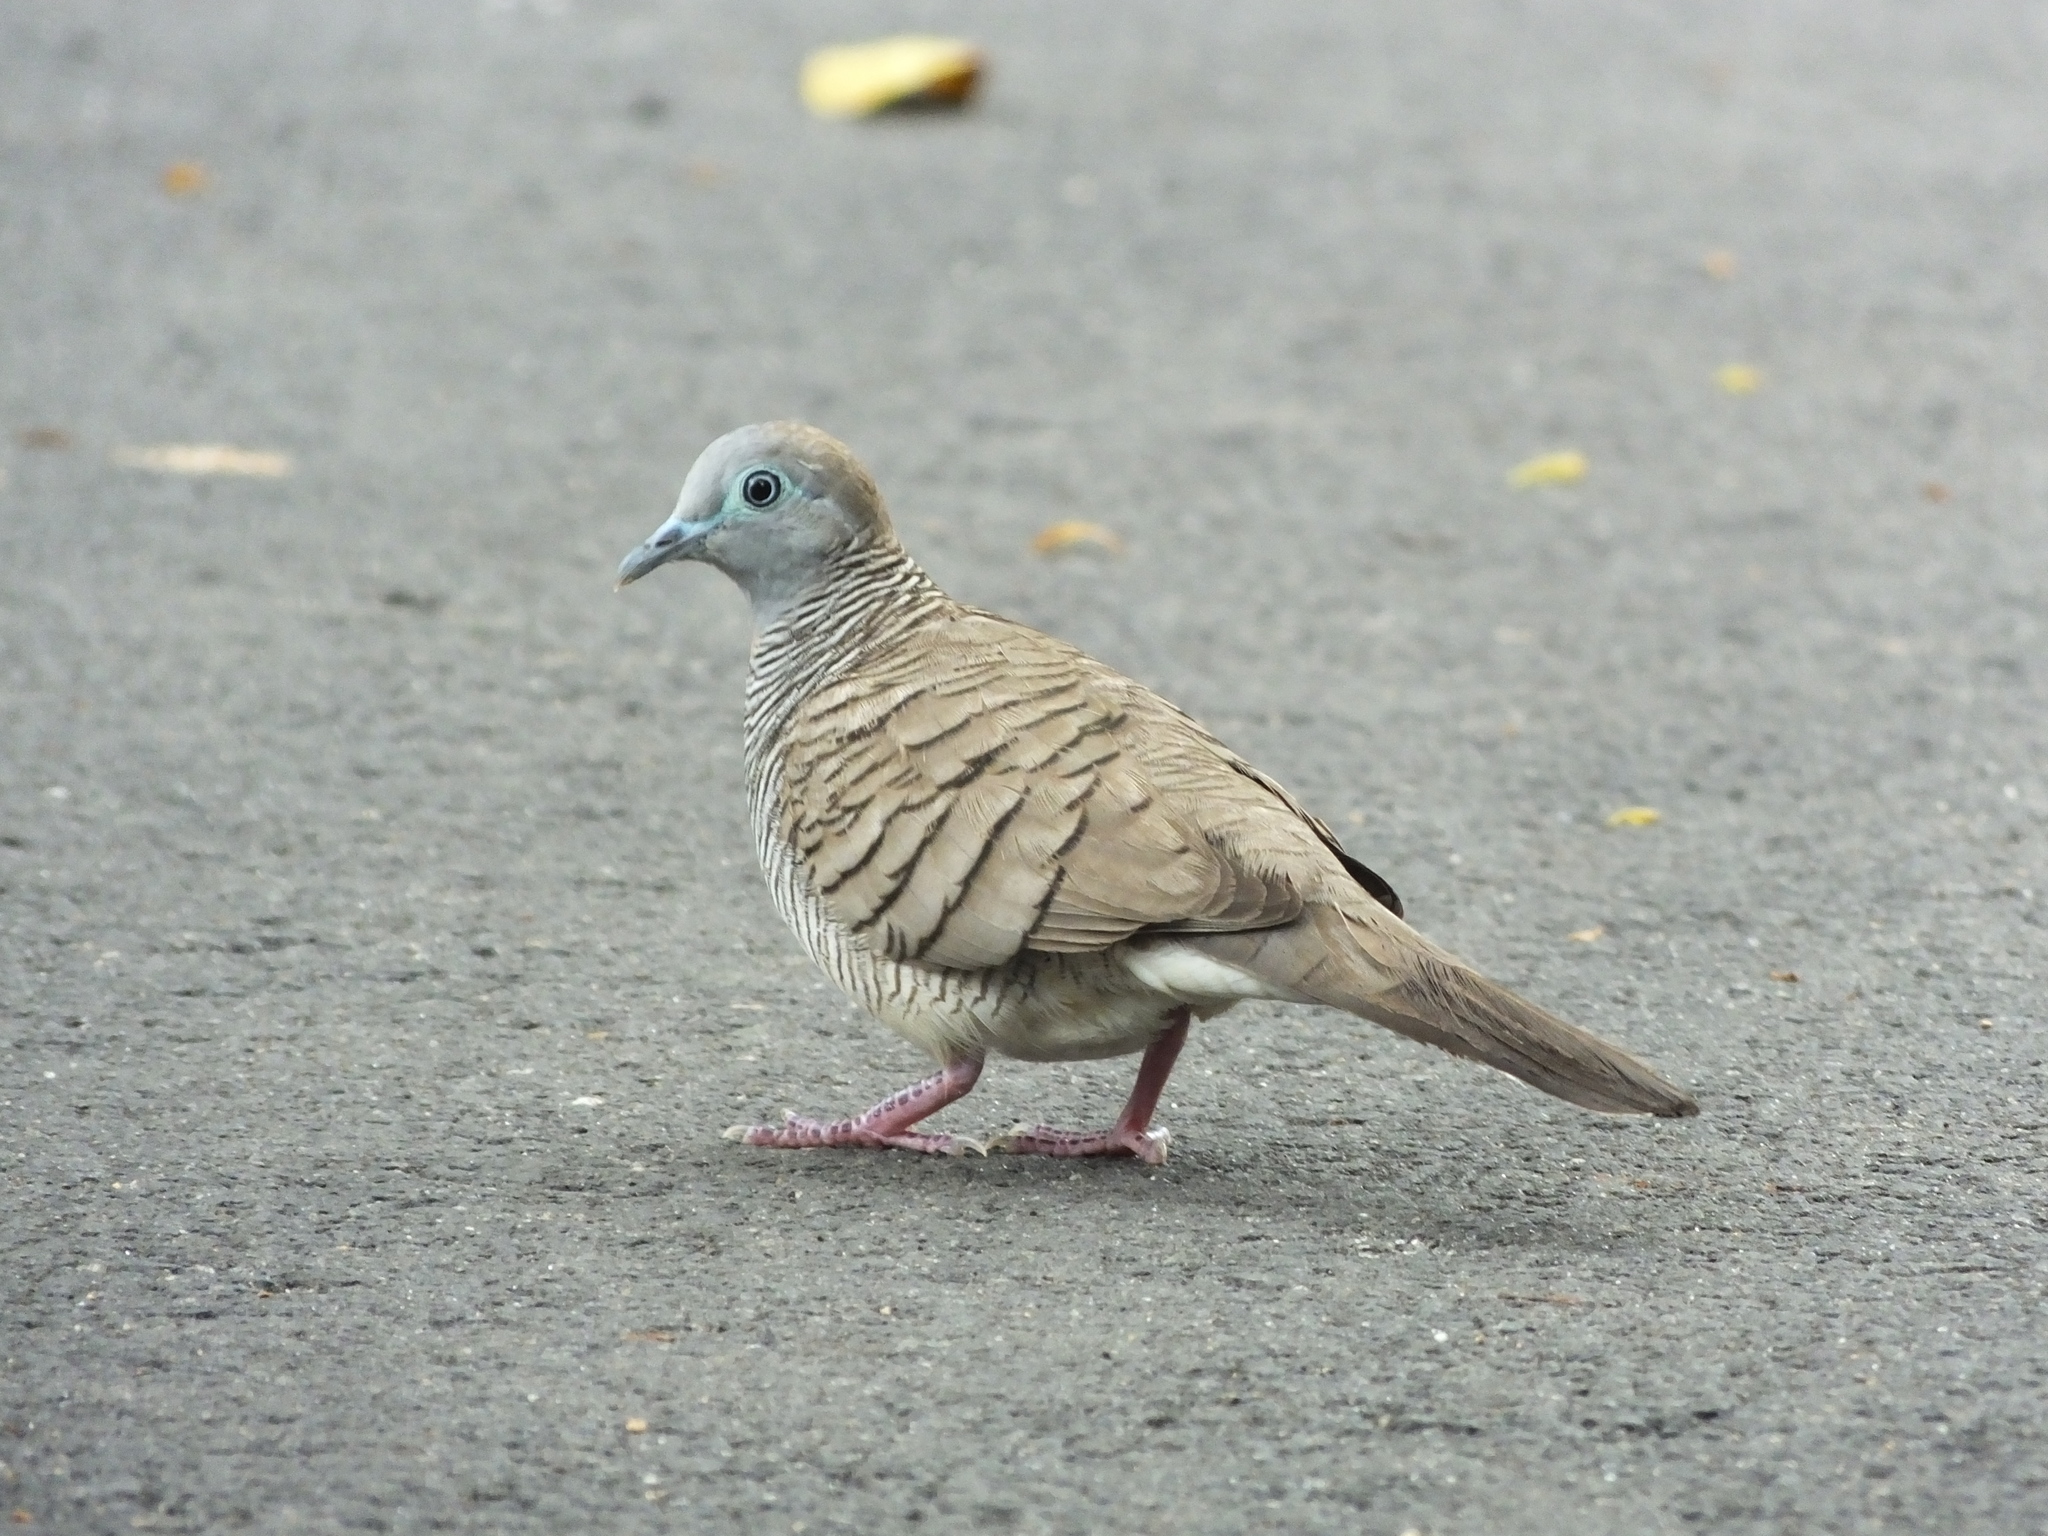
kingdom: Animalia
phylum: Chordata
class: Aves
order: Columbiformes
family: Columbidae
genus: Geopelia
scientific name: Geopelia striata
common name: Zebra dove
